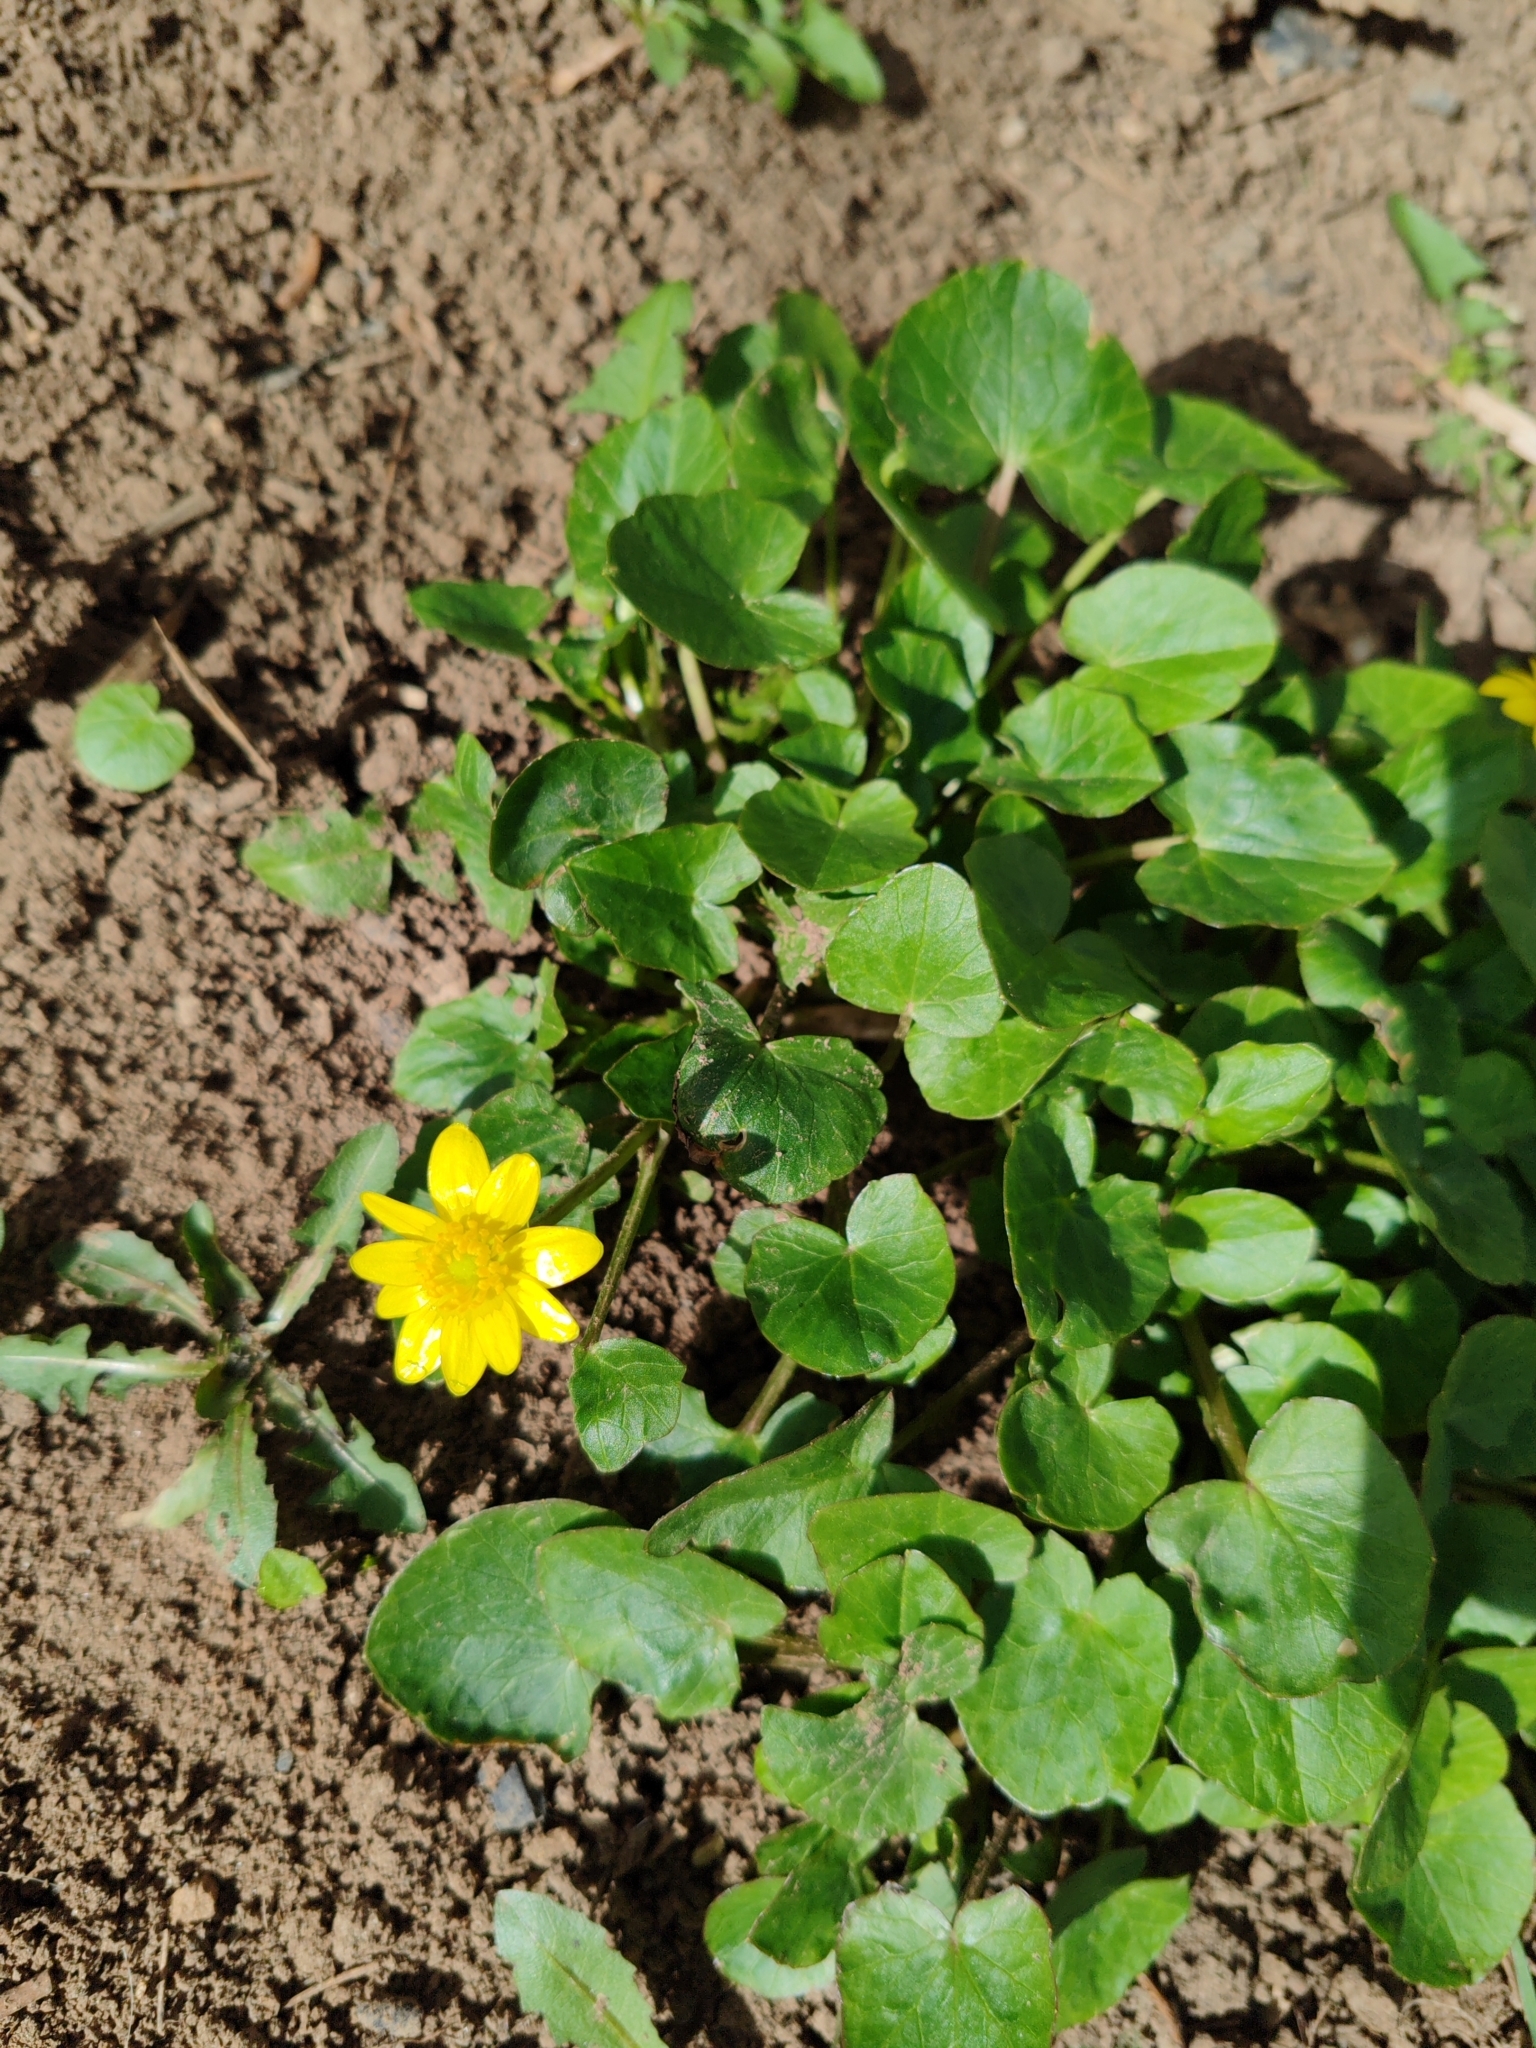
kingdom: Plantae
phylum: Tracheophyta
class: Magnoliopsida
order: Ranunculales
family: Ranunculaceae
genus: Ficaria
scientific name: Ficaria verna
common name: Lesser celandine
